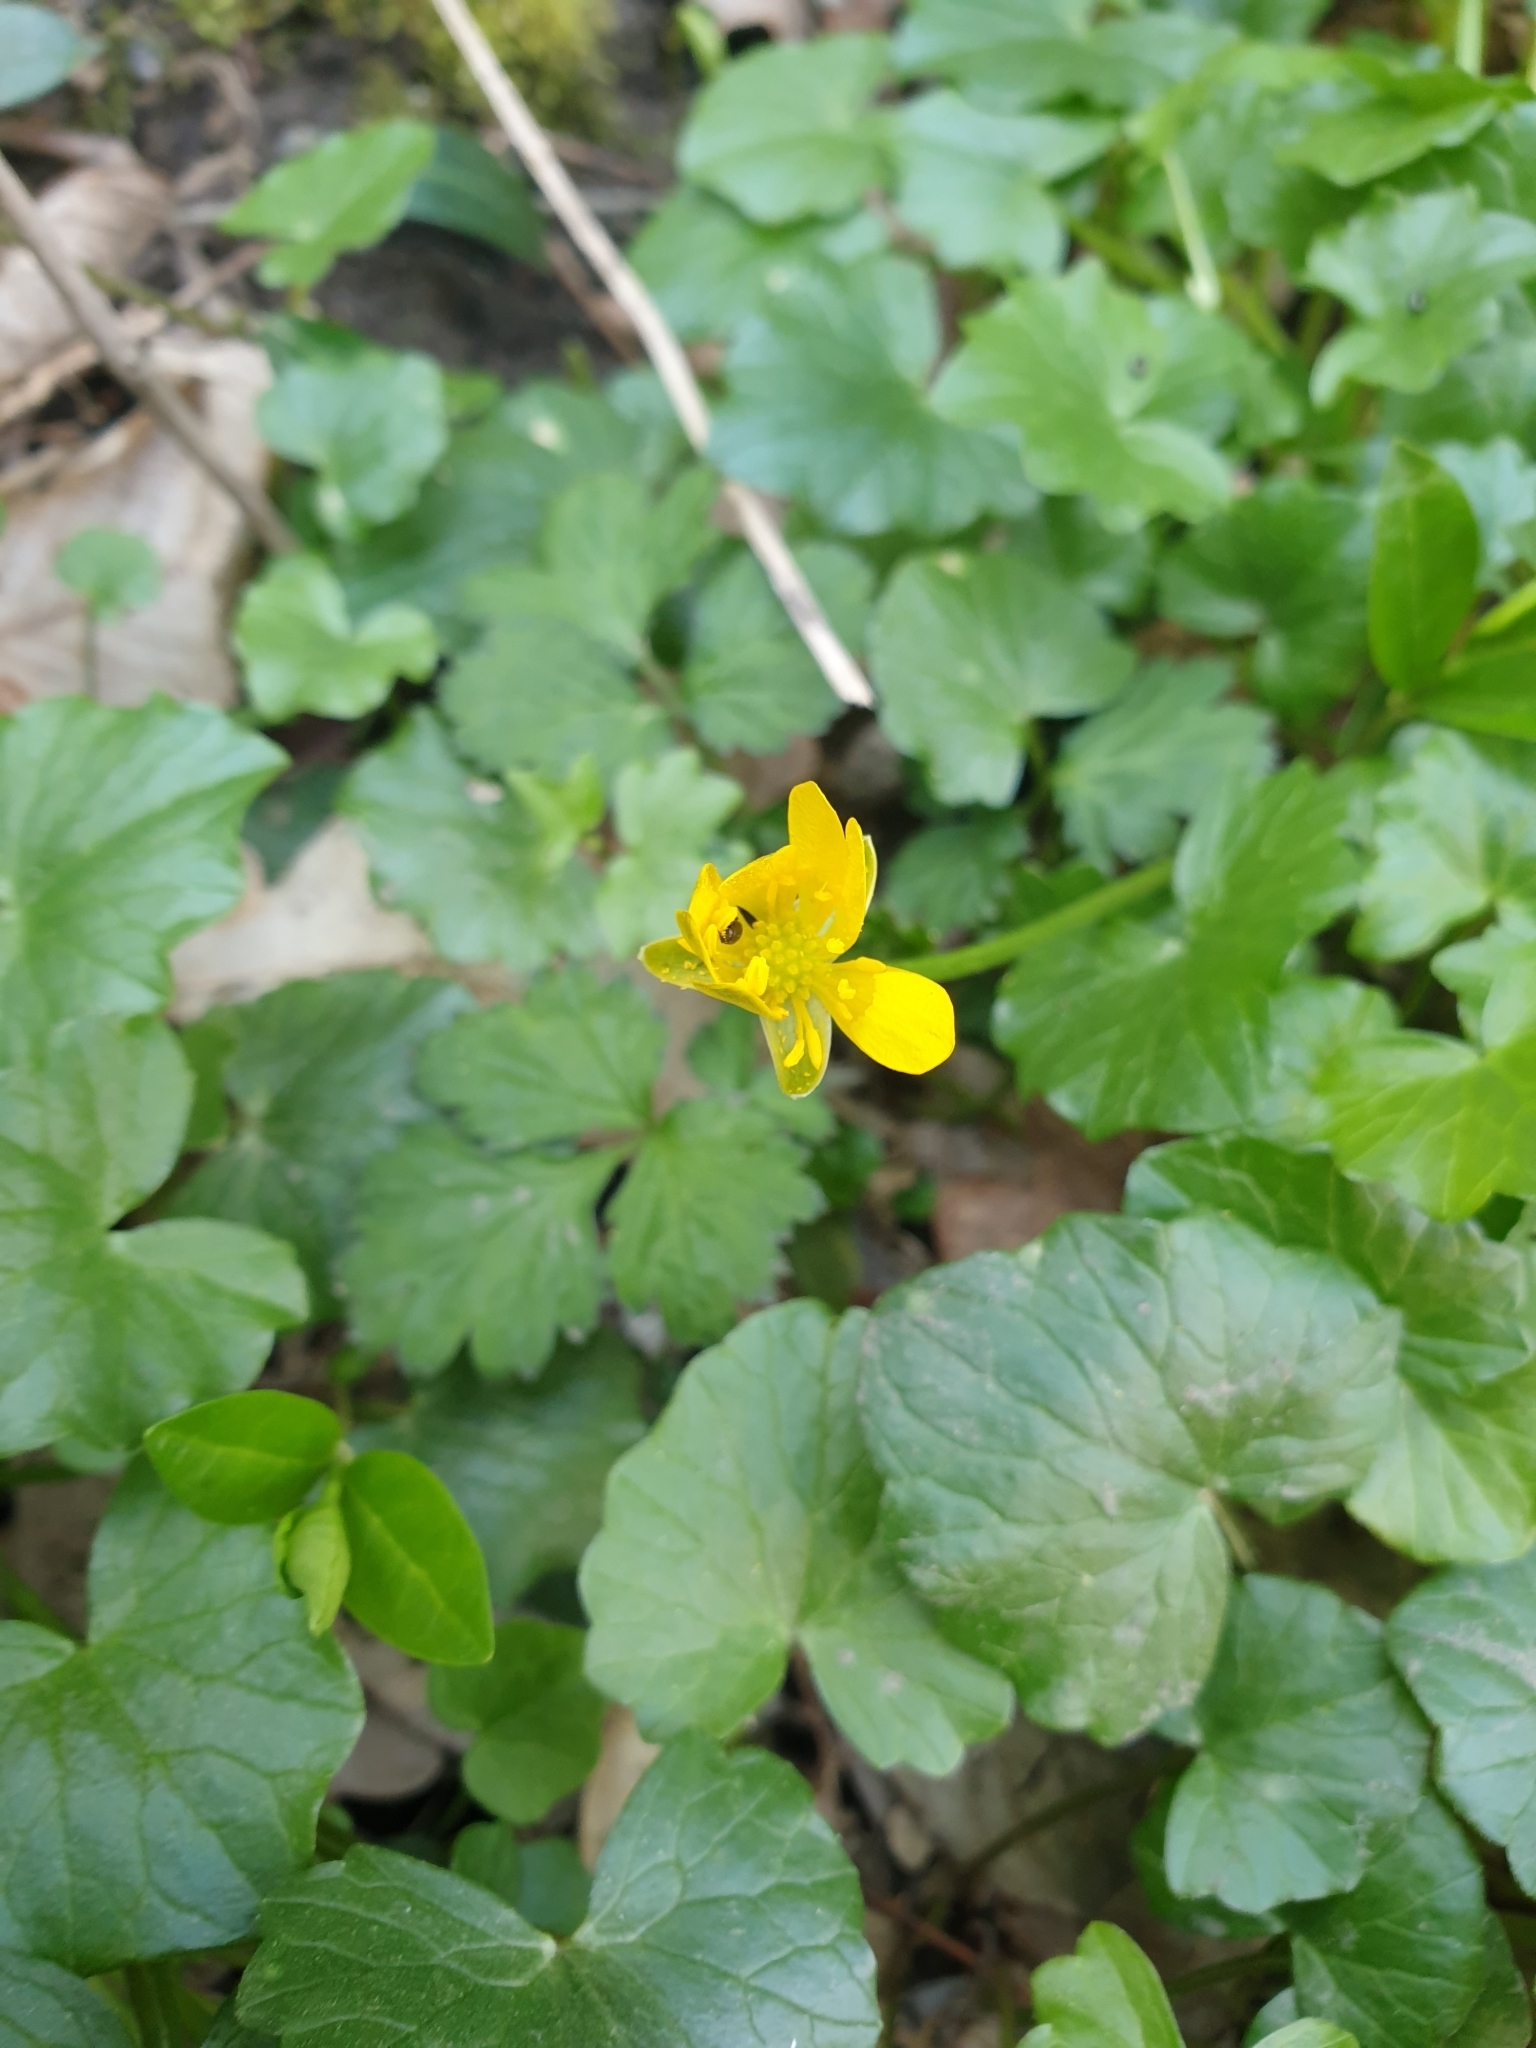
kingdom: Plantae
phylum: Tracheophyta
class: Magnoliopsida
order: Ranunculales
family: Ranunculaceae
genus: Ficaria
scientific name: Ficaria verna
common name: Lesser celandine
